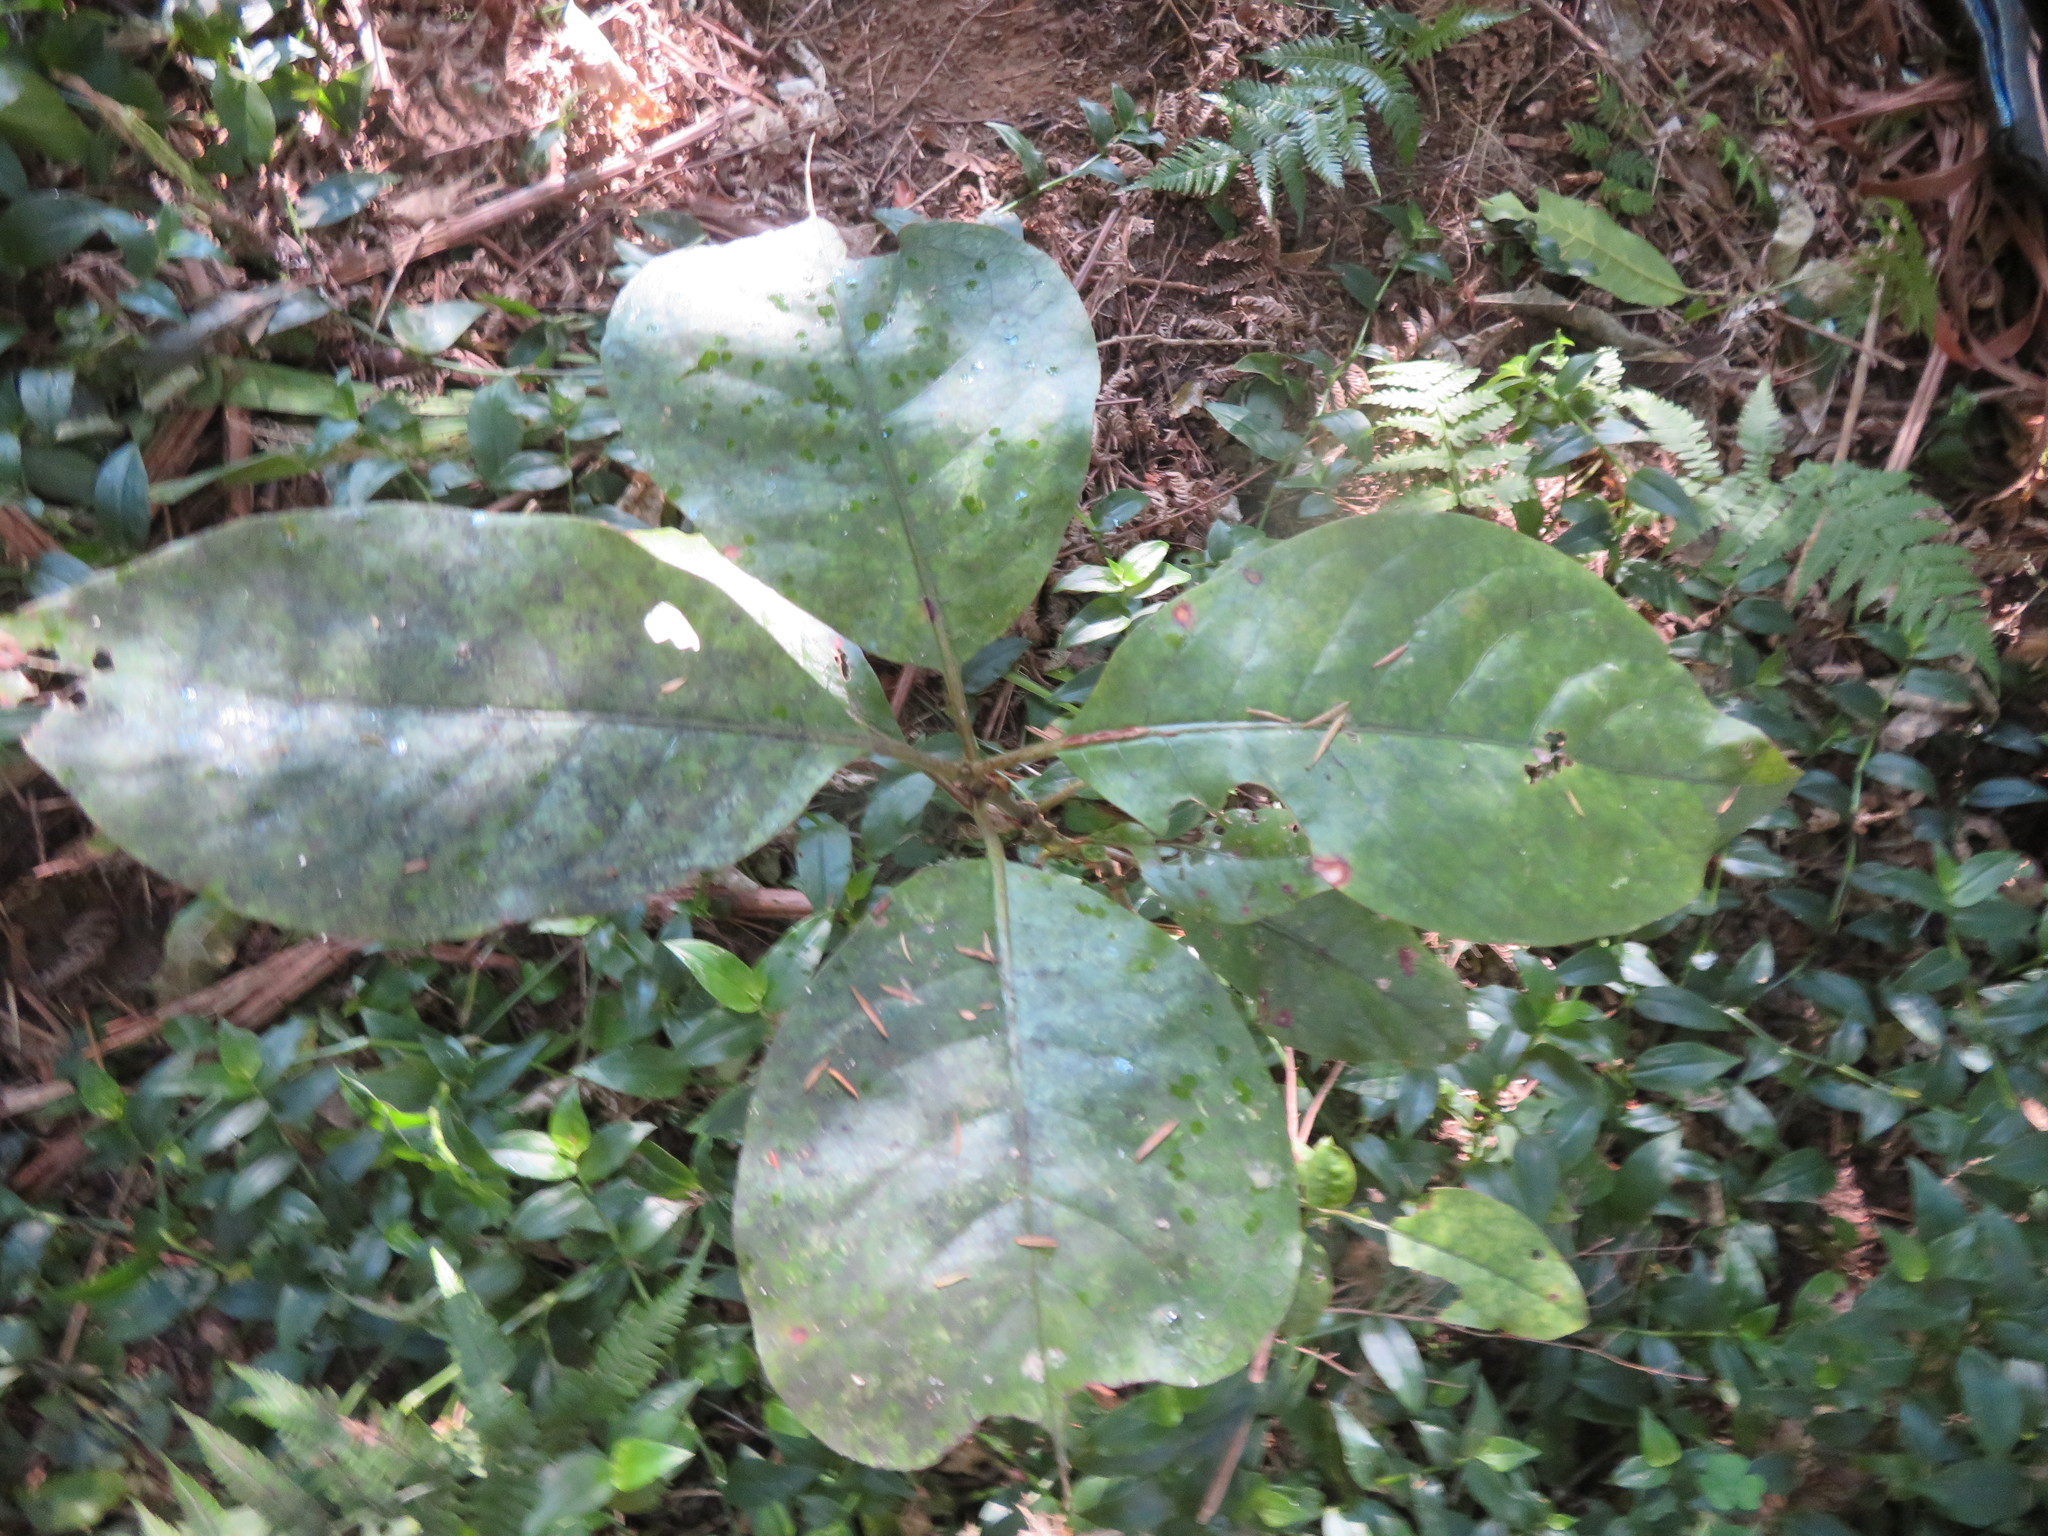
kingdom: Plantae
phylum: Tracheophyta
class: Magnoliopsida
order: Gentianales
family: Rubiaceae
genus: Coprosma
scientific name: Coprosma autumnalis
